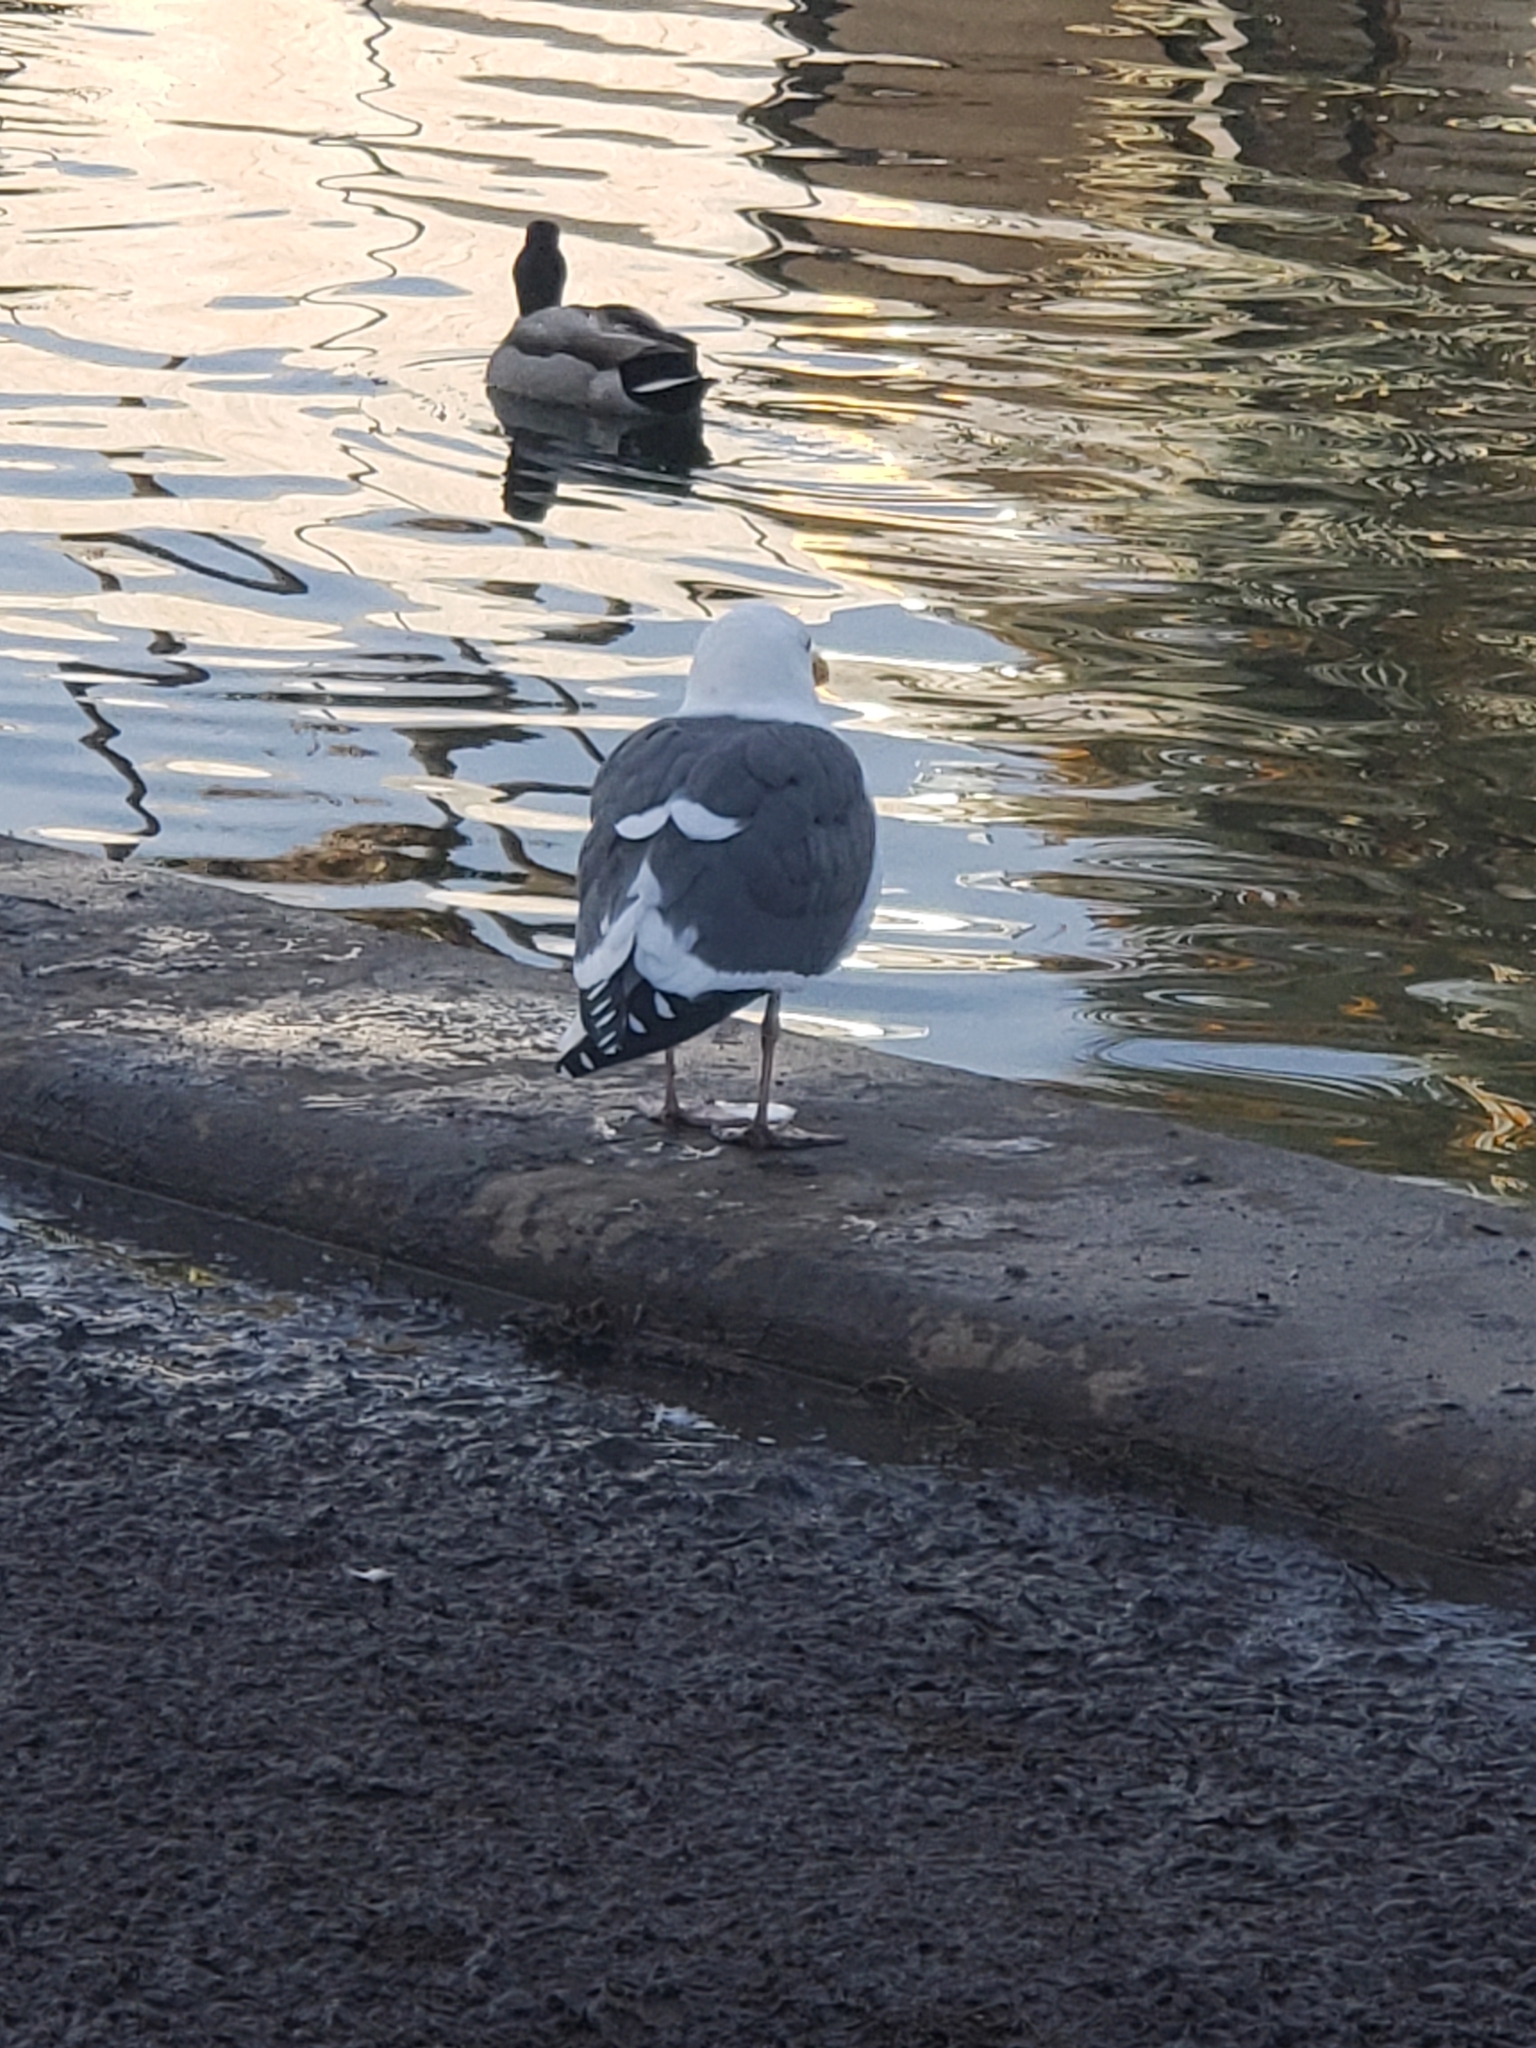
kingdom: Animalia
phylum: Chordata
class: Aves
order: Charadriiformes
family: Laridae
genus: Larus
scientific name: Larus occidentalis
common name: Western gull
